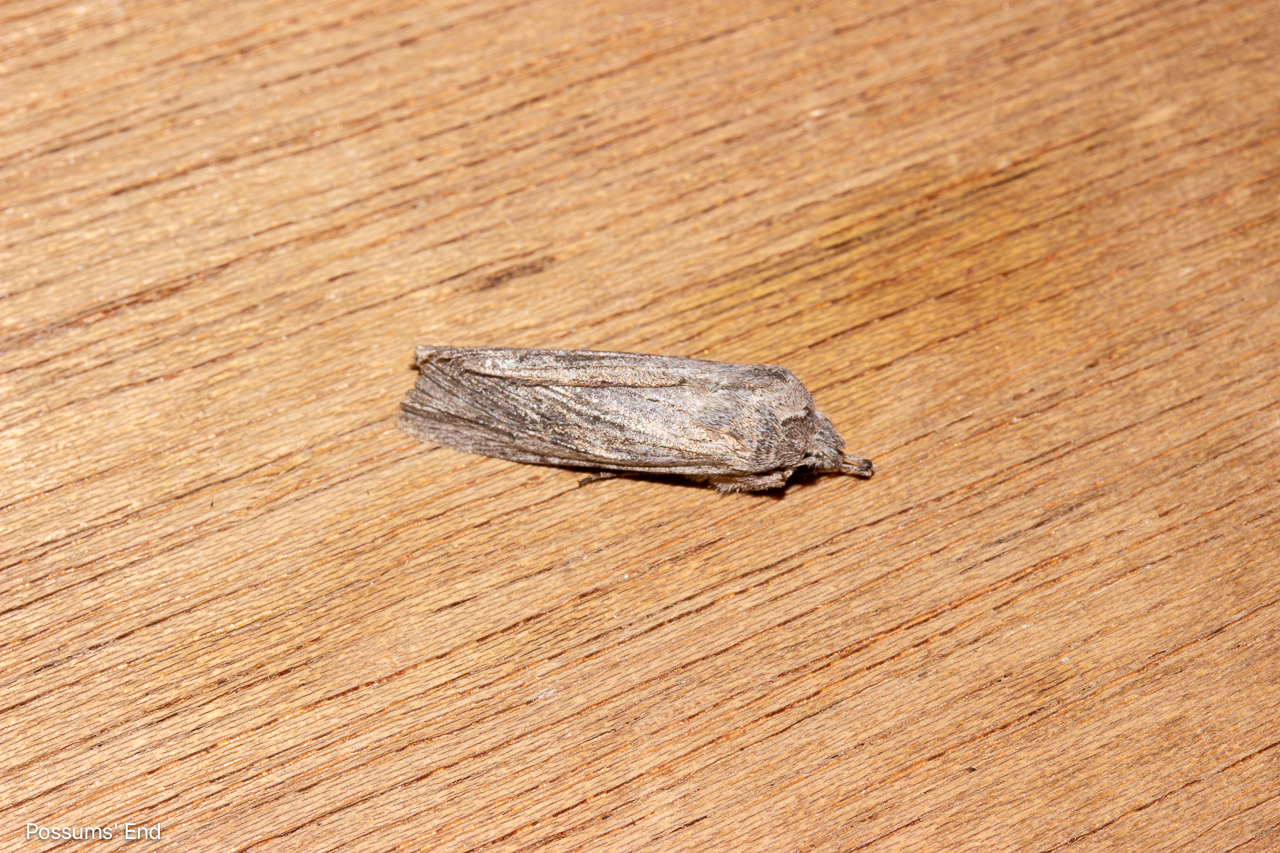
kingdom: Animalia
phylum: Arthropoda
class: Insecta
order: Lepidoptera
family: Noctuidae
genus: Physetica
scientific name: Physetica phricias
